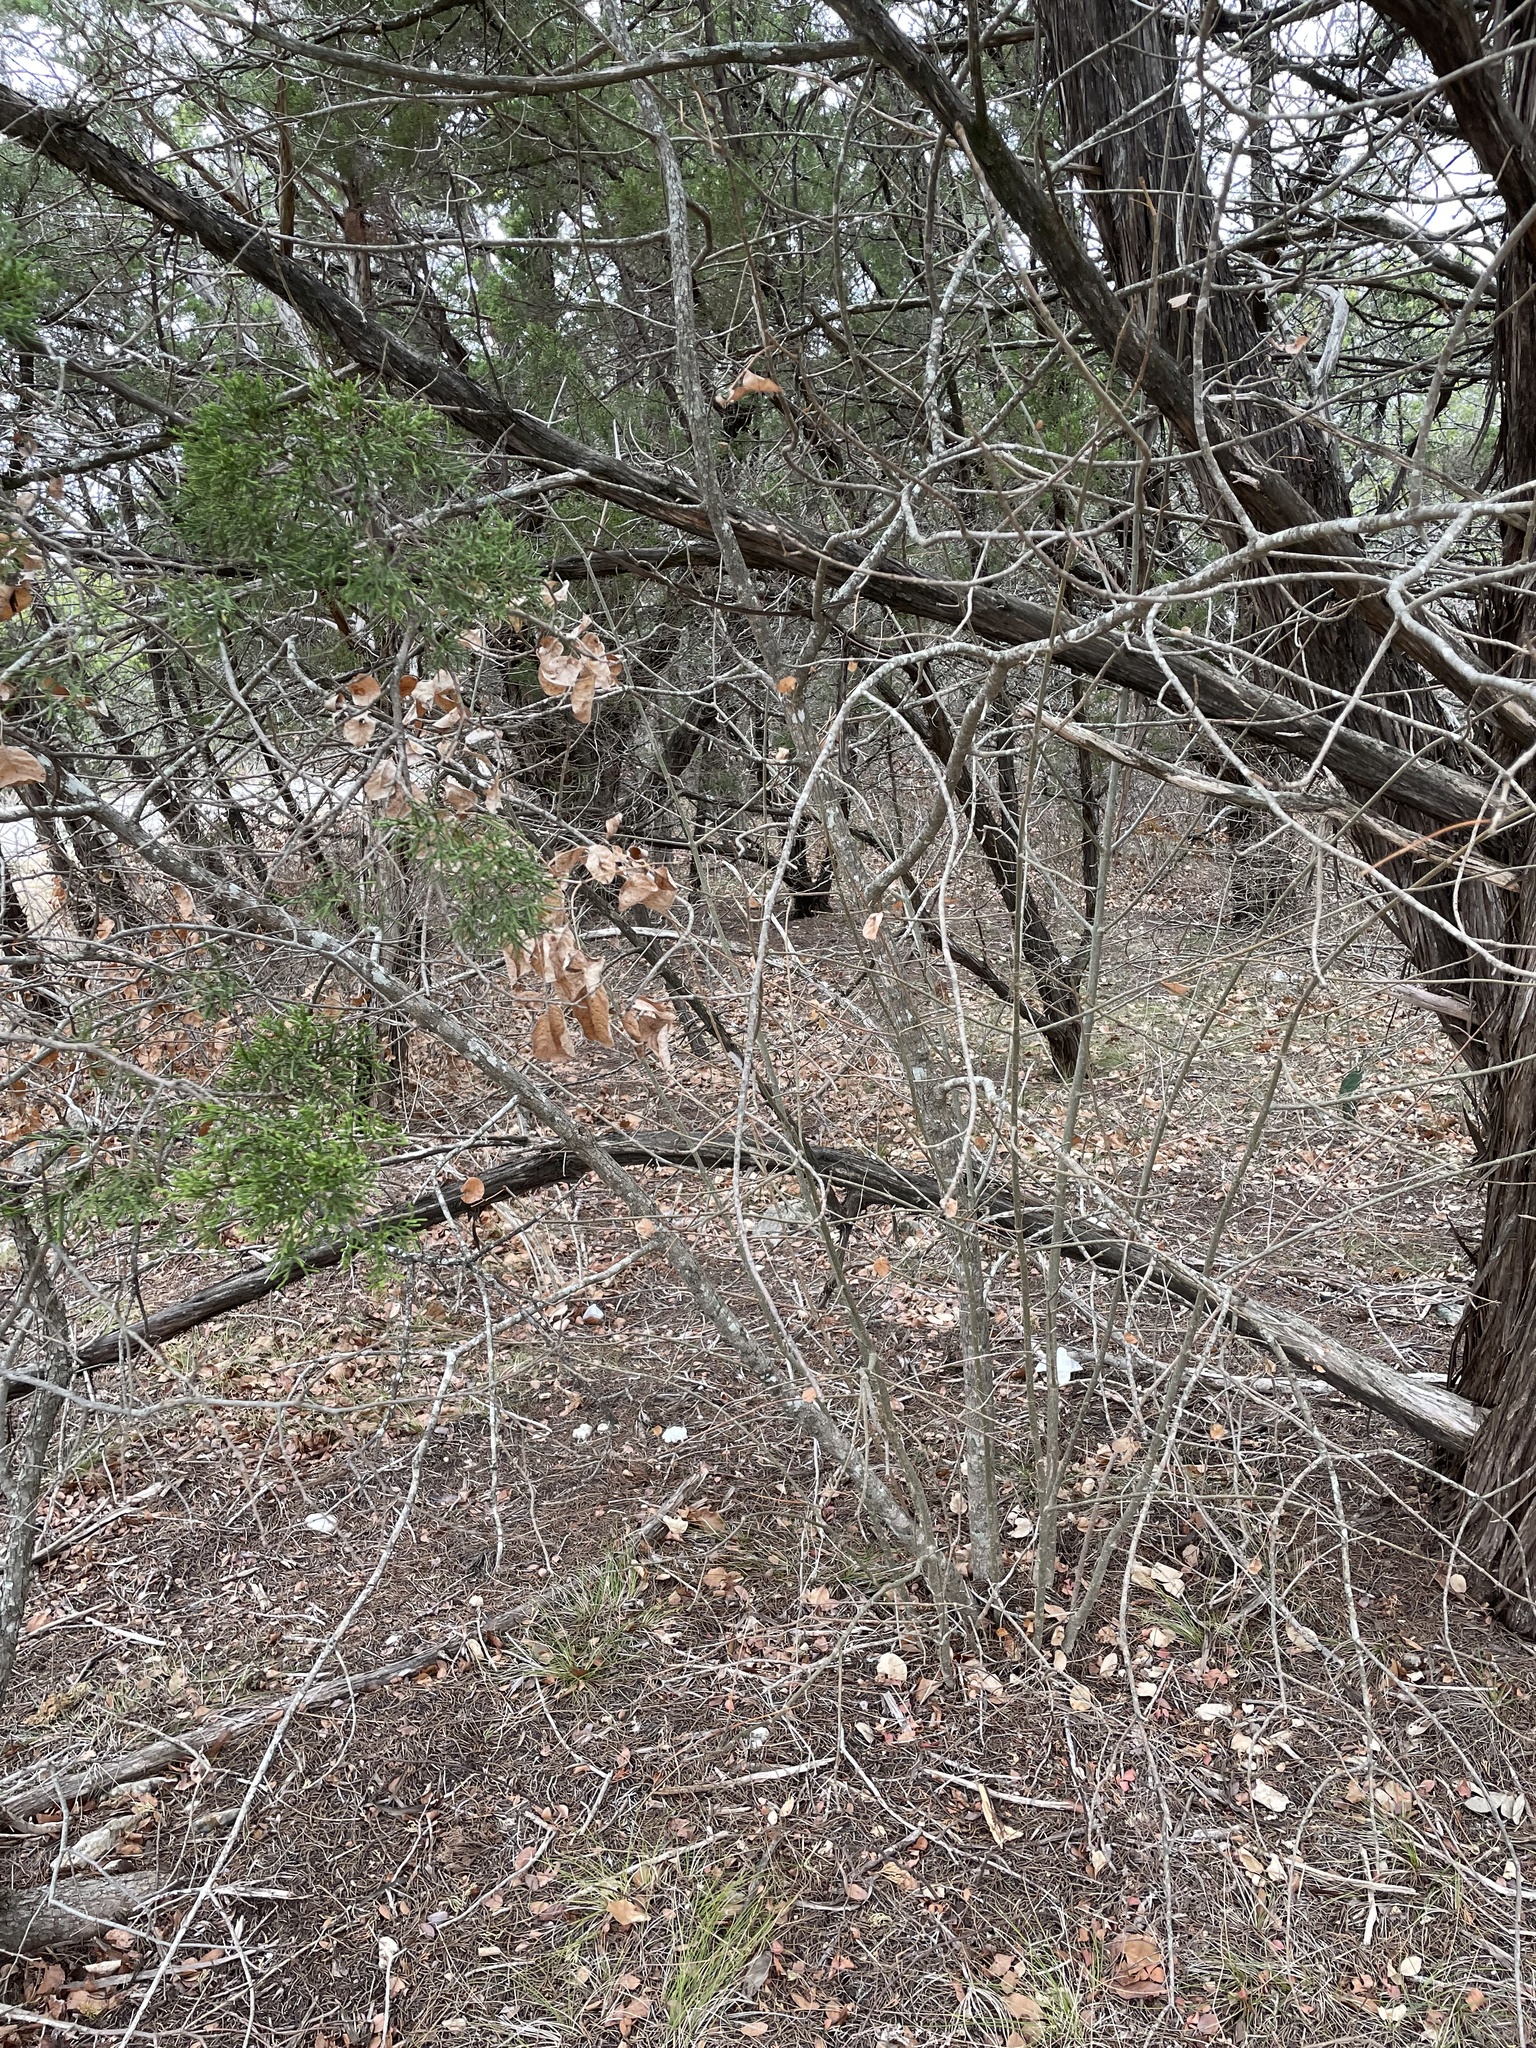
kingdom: Plantae
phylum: Tracheophyta
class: Magnoliopsida
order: Lamiales
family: Oleaceae
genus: Fraxinus
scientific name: Fraxinus albicans
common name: Texas ash
